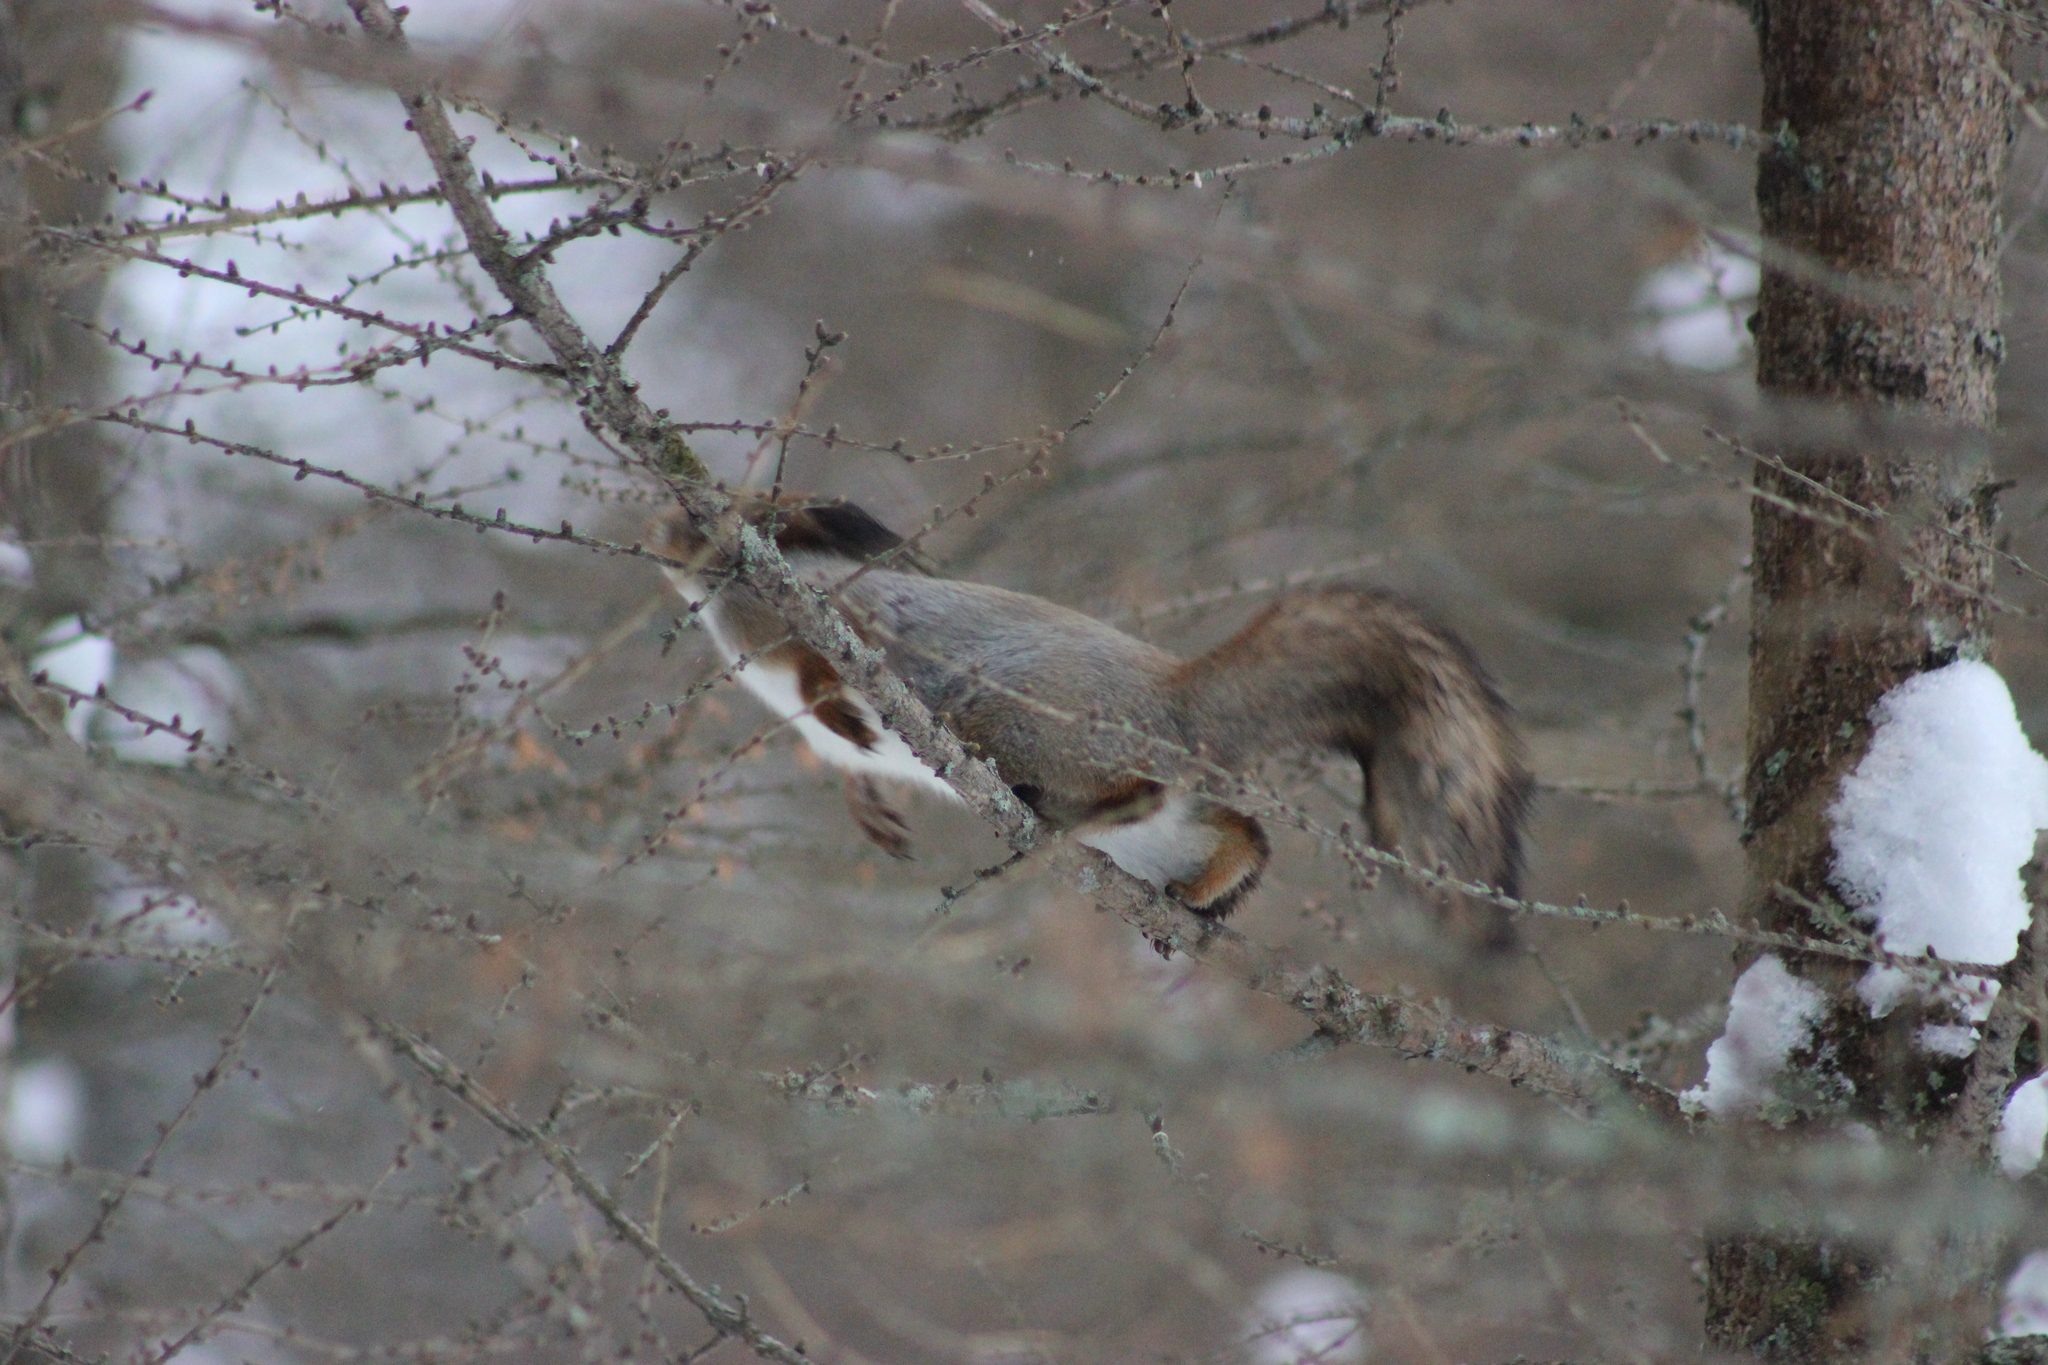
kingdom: Animalia
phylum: Chordata
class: Mammalia
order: Rodentia
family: Sciuridae
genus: Sciurus
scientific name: Sciurus vulgaris
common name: Eurasian red squirrel
